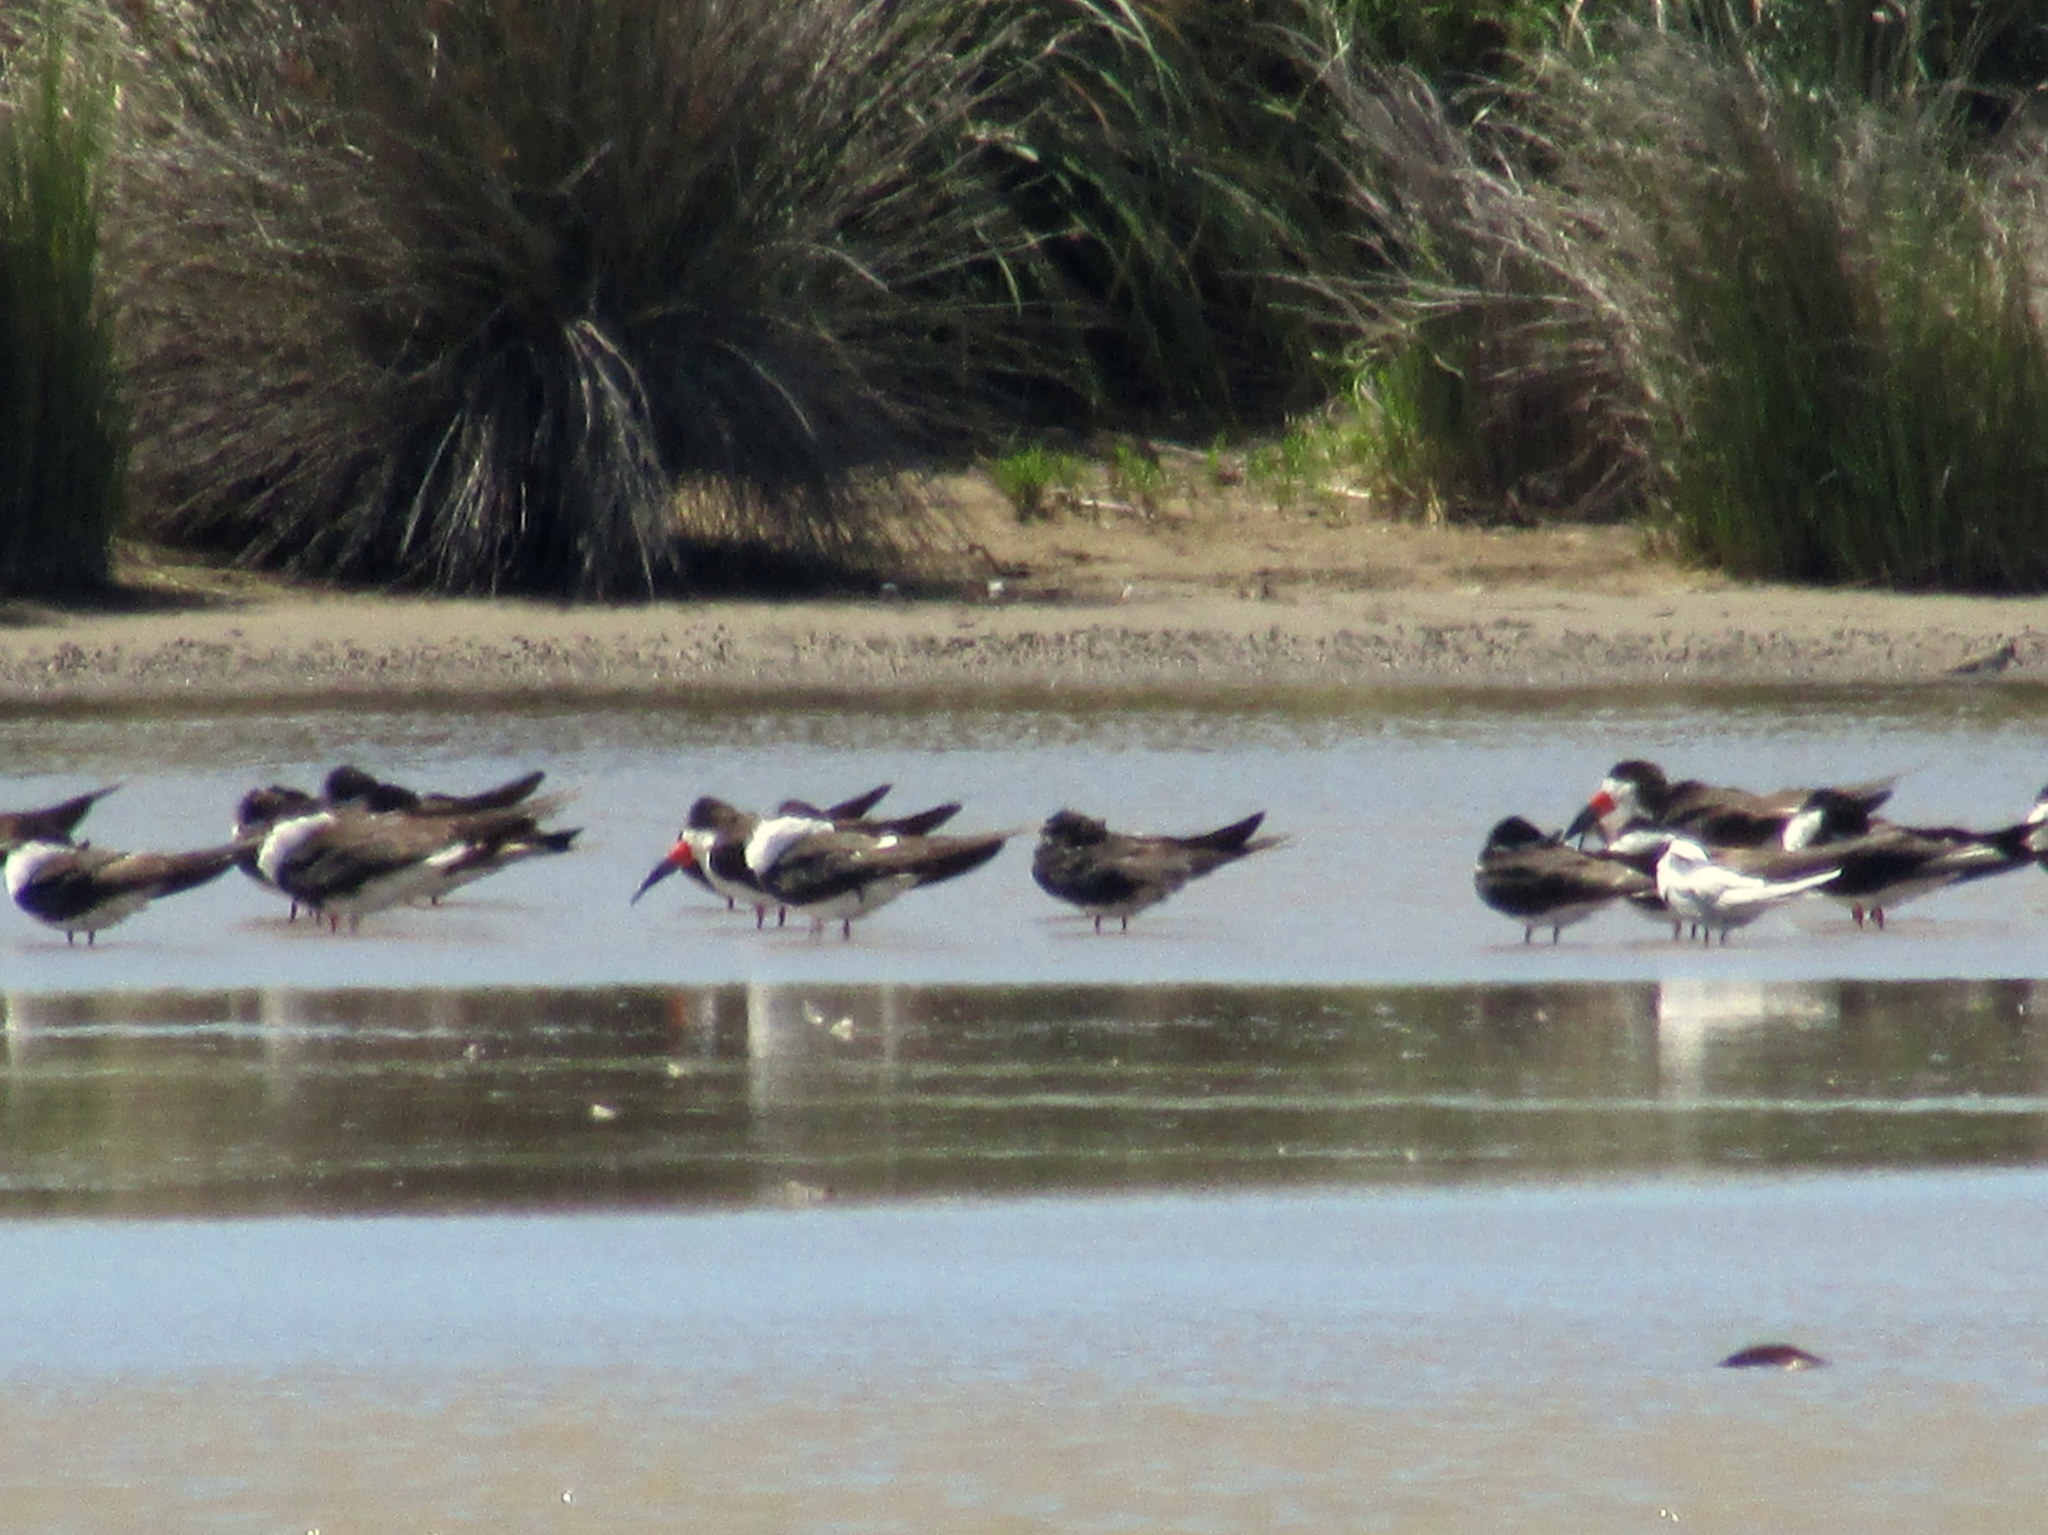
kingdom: Animalia
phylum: Chordata
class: Aves
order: Charadriiformes
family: Laridae
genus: Rynchops
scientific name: Rynchops niger
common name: Black skimmer
